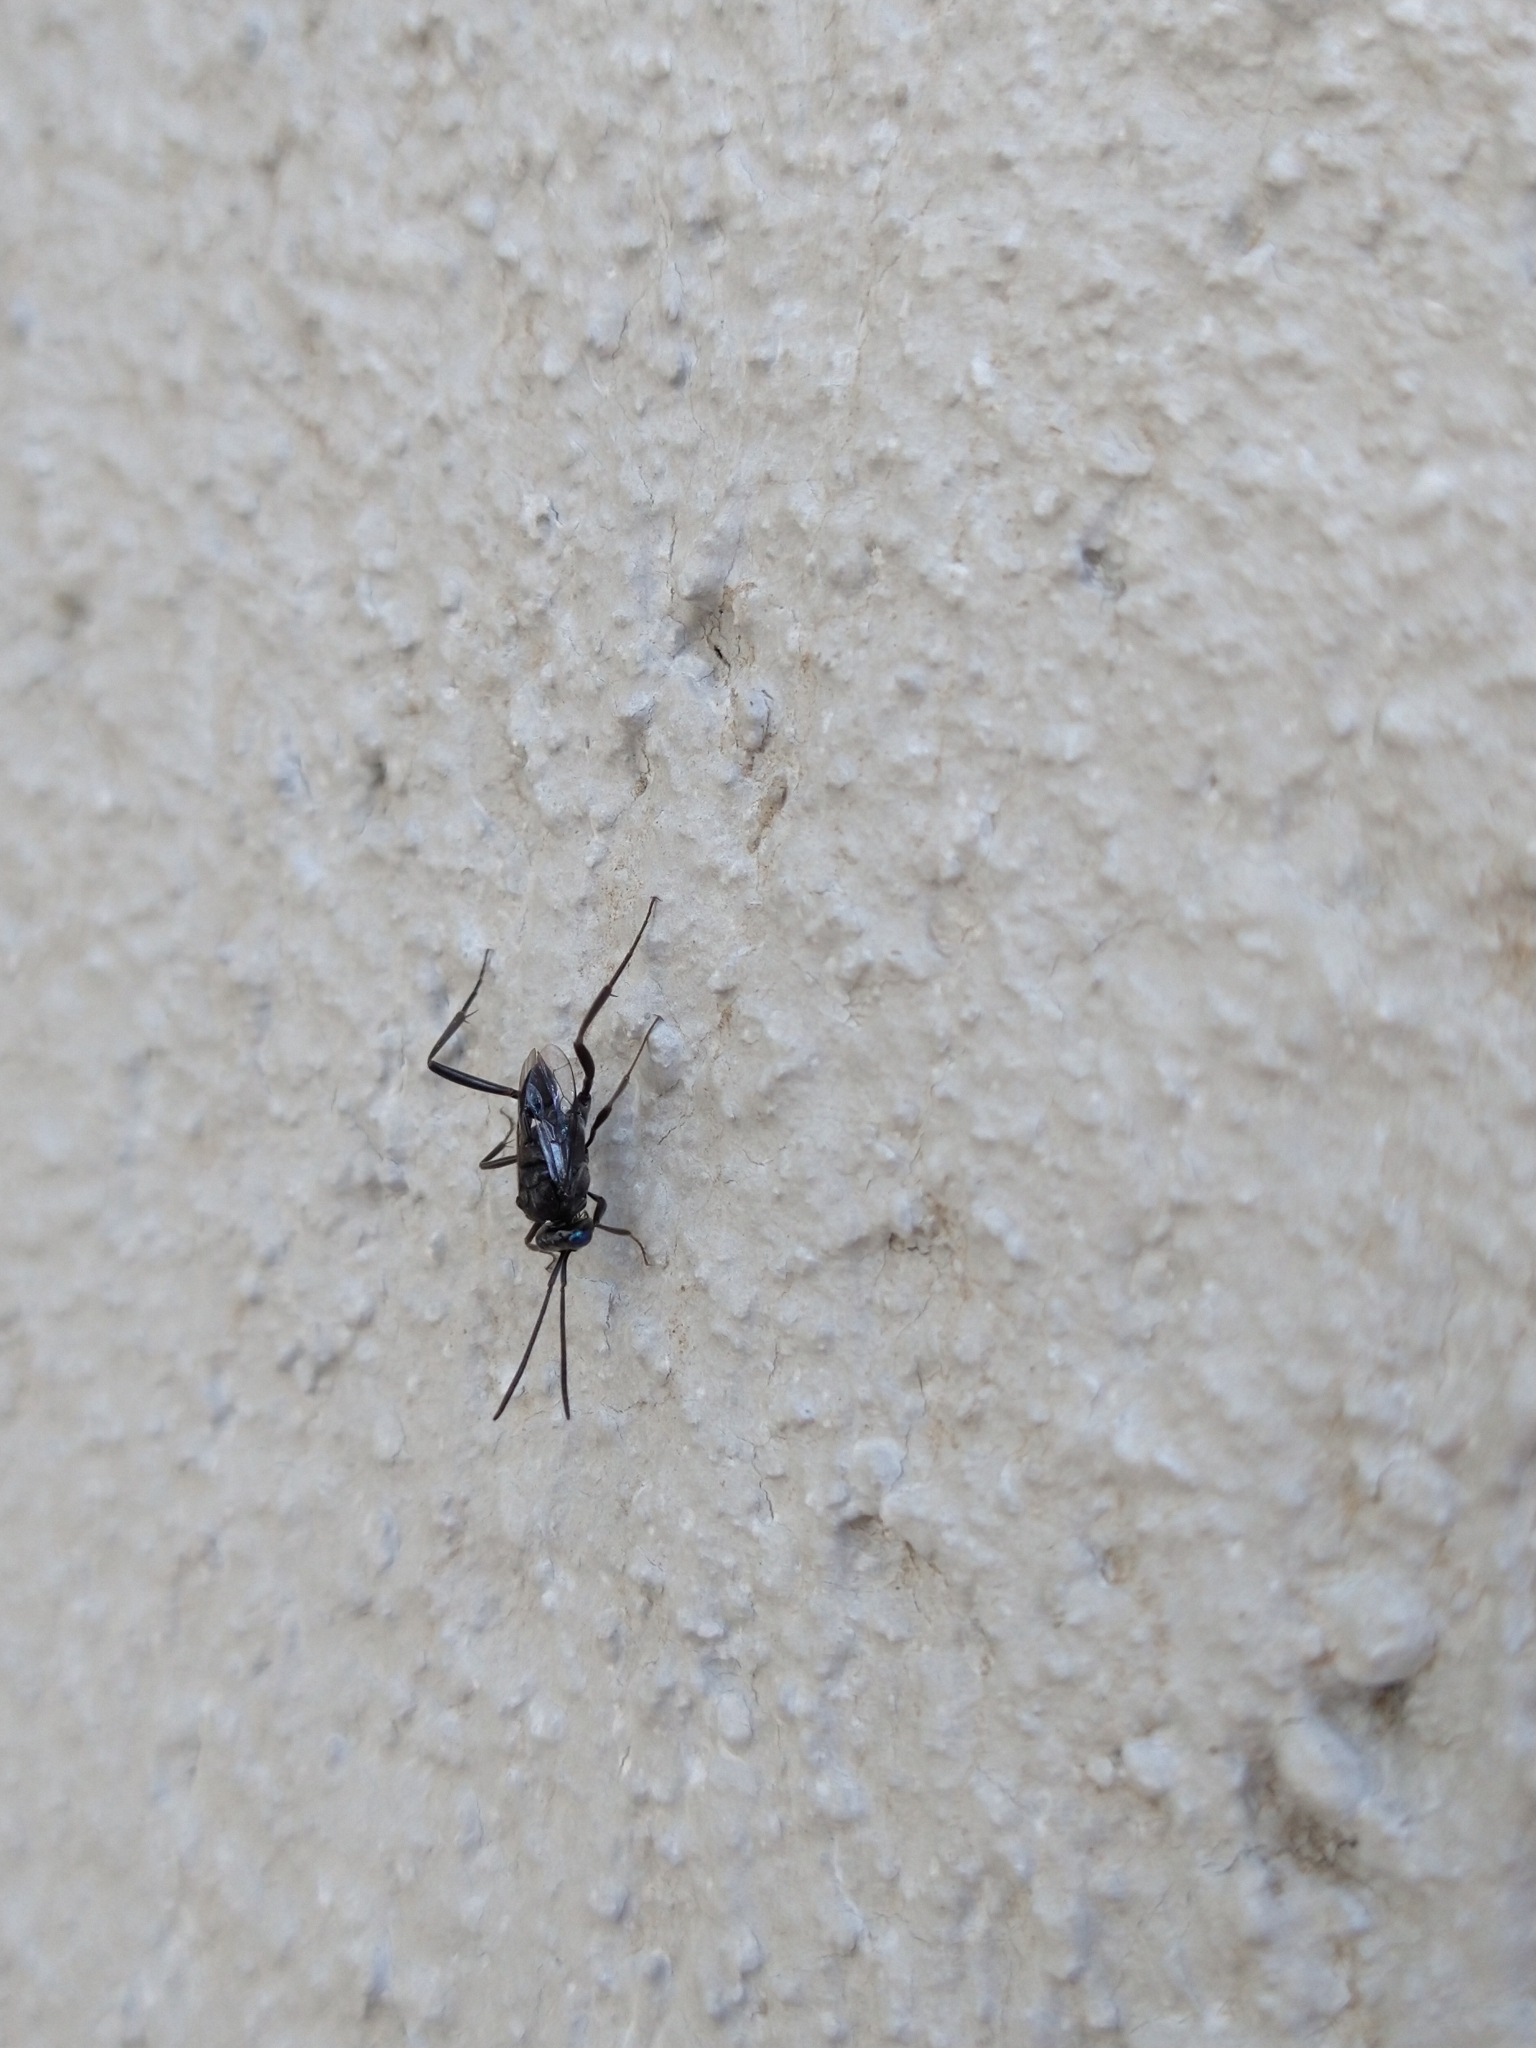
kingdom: Animalia
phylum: Arthropoda
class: Insecta
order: Hymenoptera
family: Evaniidae
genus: Evania
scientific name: Evania appendigaster
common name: Ensign wasp
